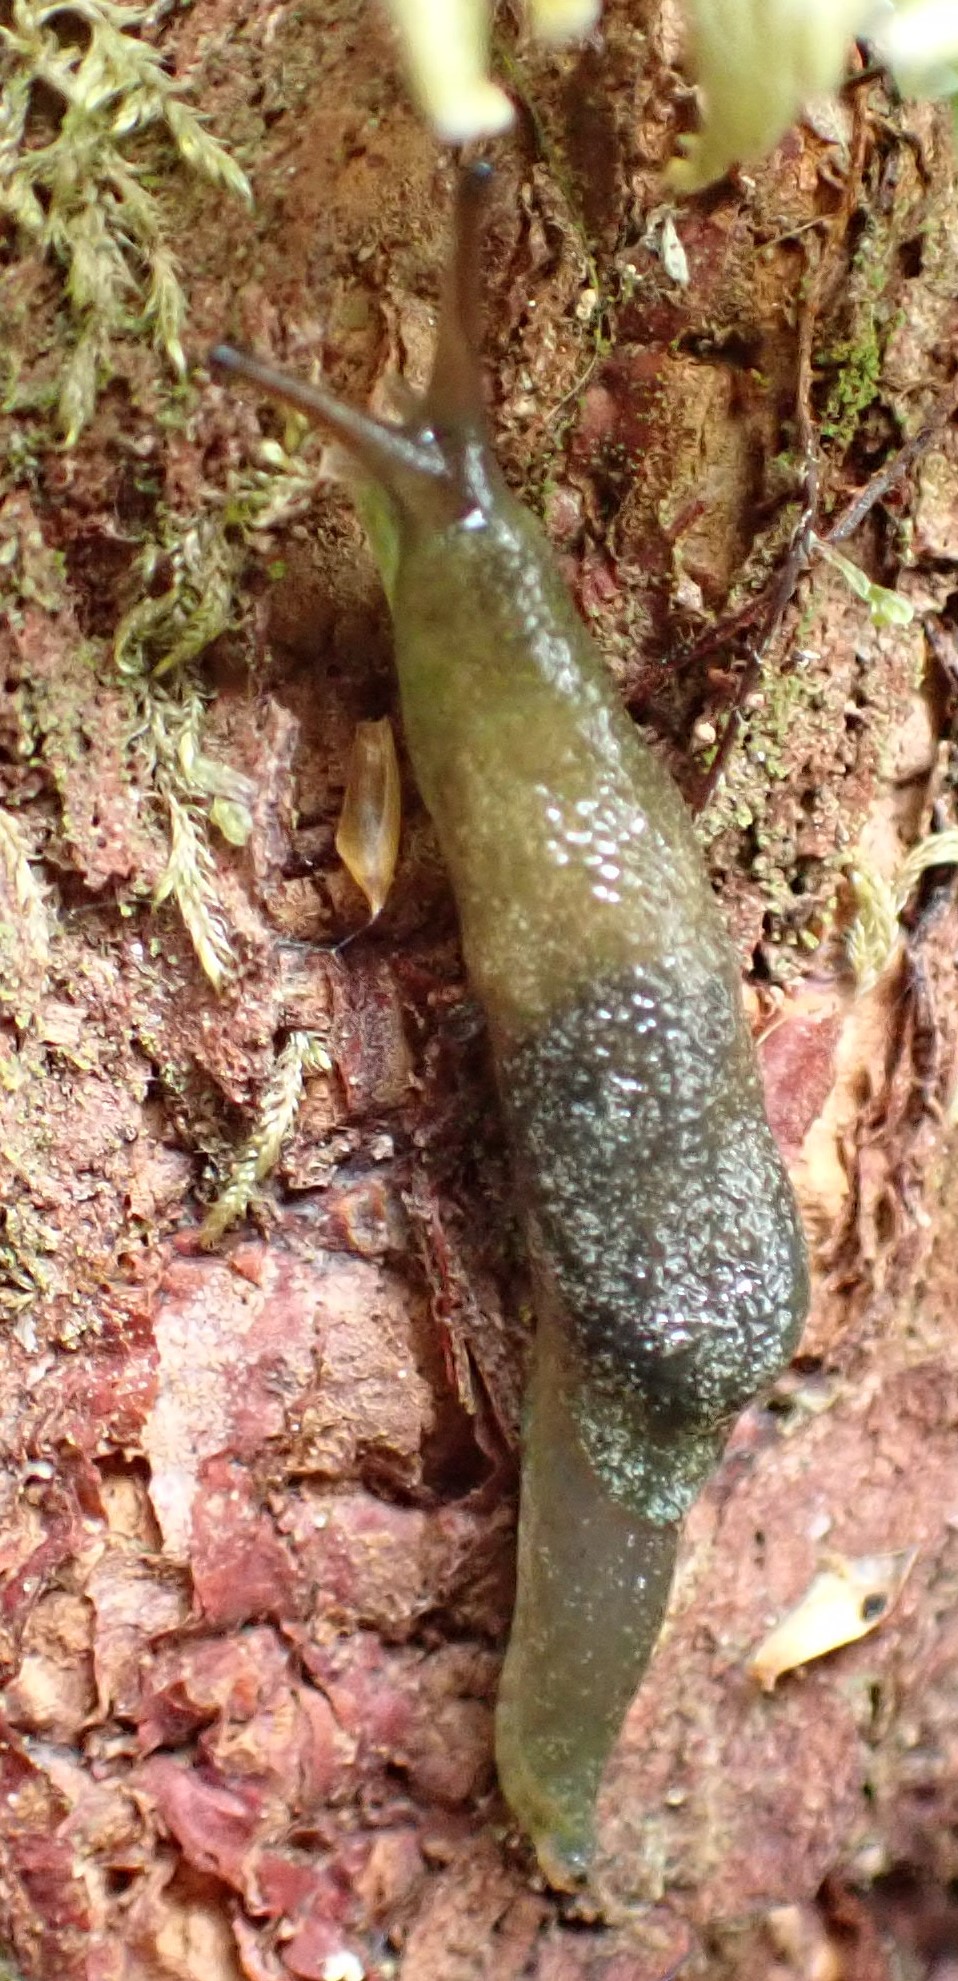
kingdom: Animalia
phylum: Mollusca
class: Gastropoda
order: Stylommatophora
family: Cystopeltidae
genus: Cystopelta
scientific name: Cystopelta bicolor
